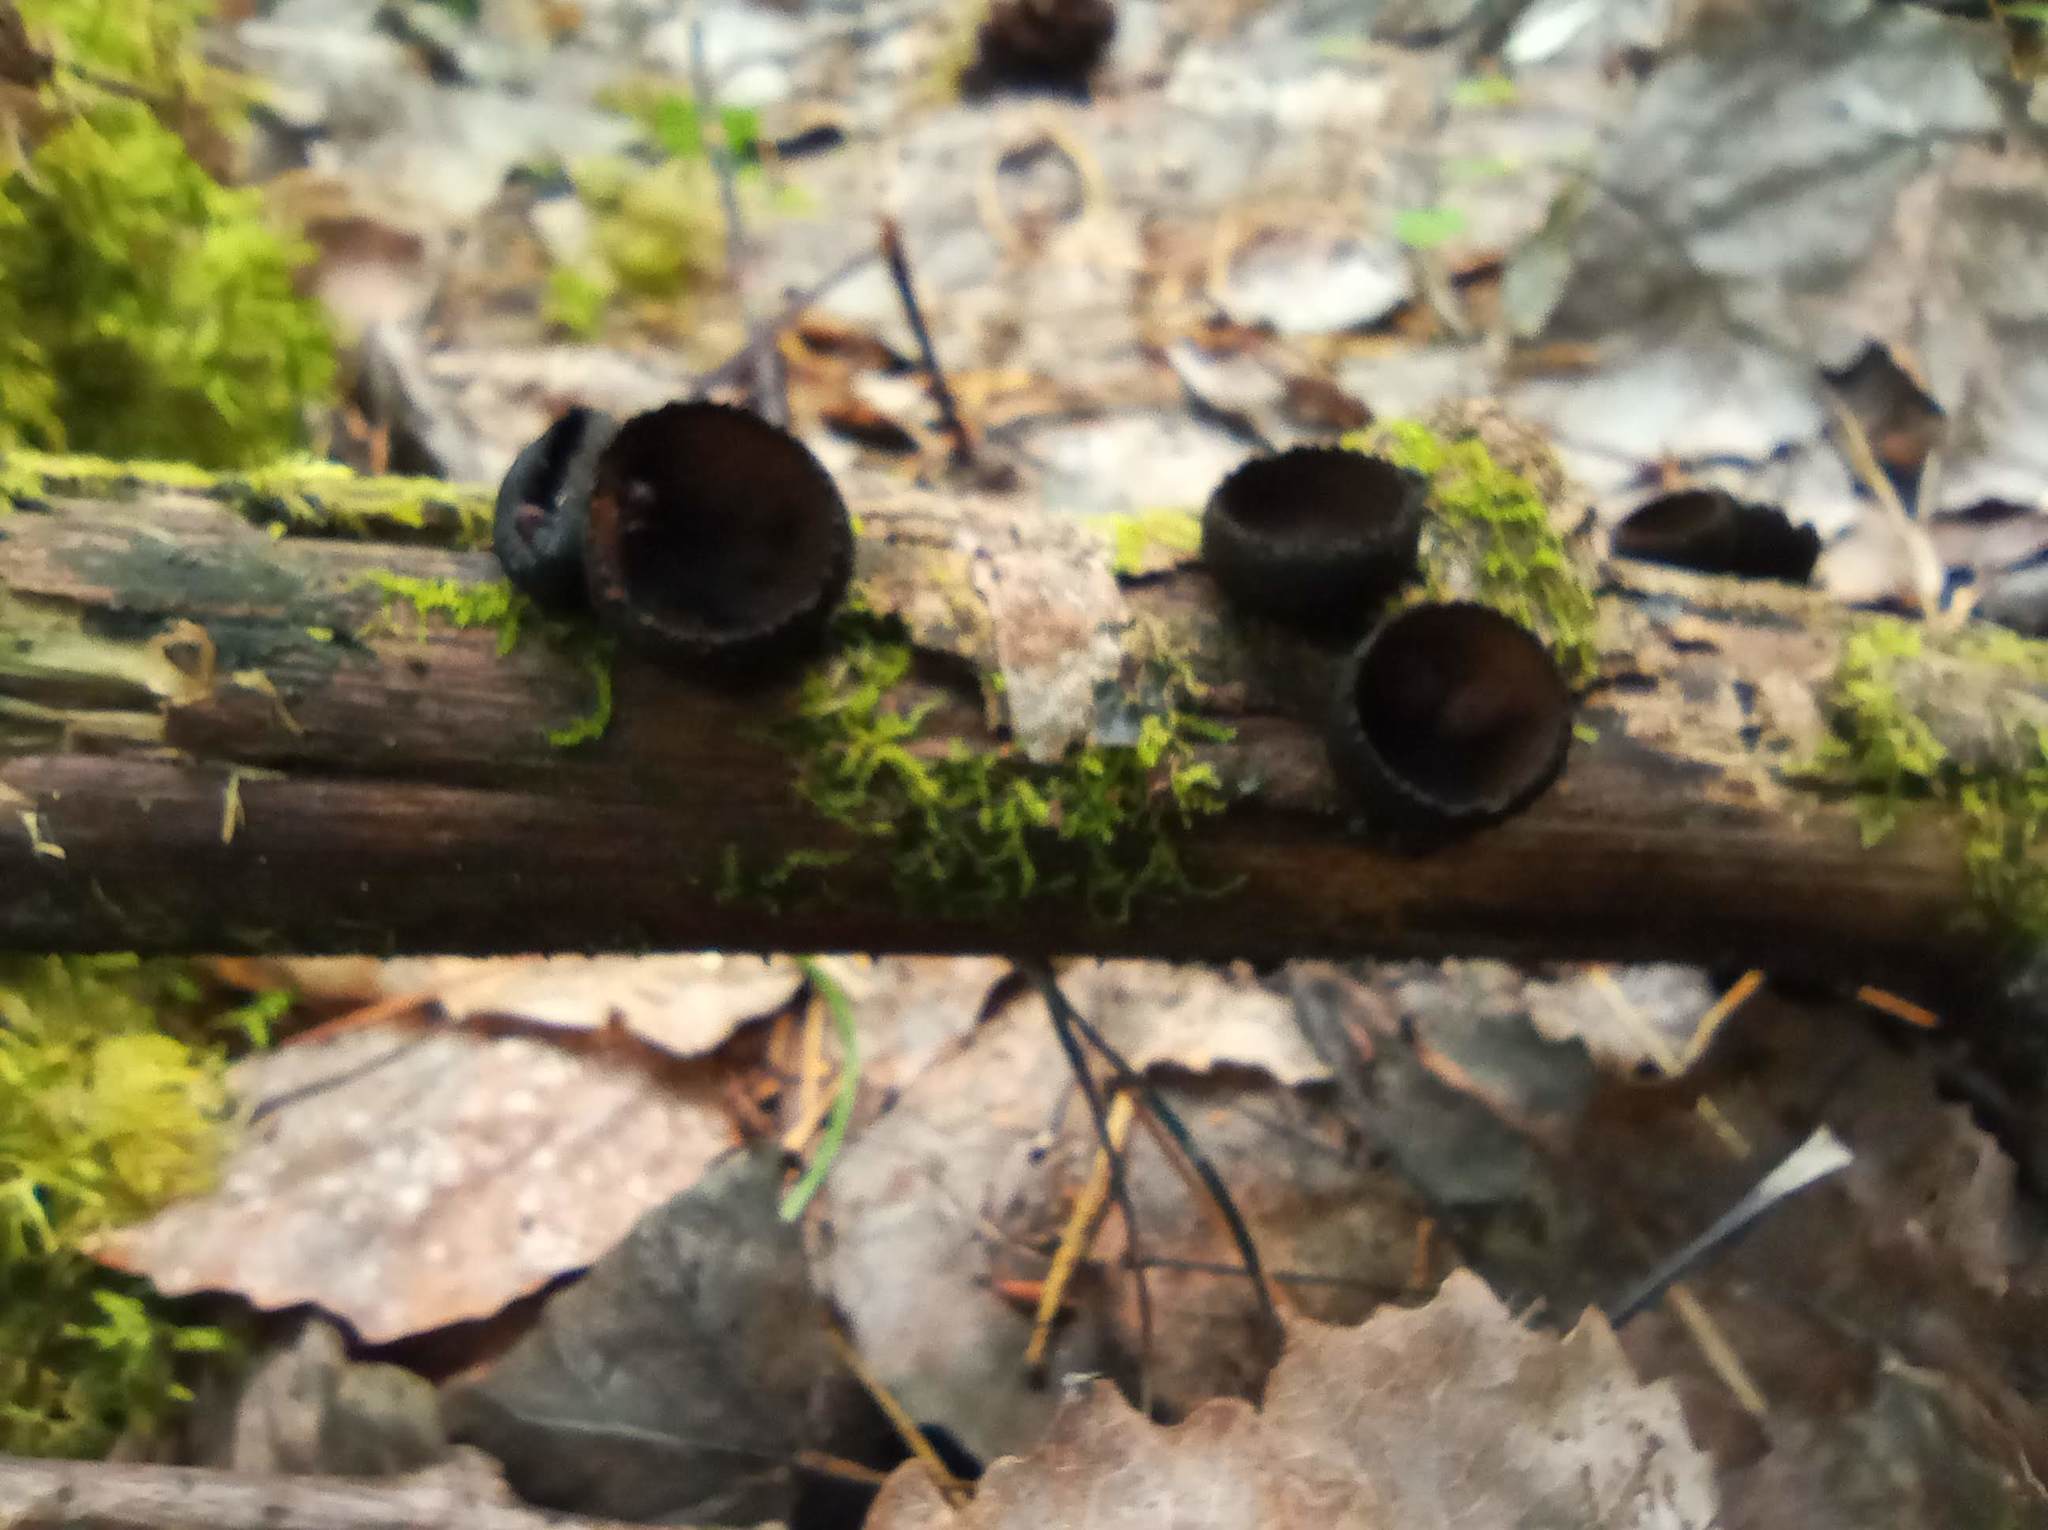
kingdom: Fungi
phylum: Ascomycota
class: Pezizomycetes
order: Pezizales
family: Sarcosomataceae
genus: Plectania
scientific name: Plectania melastoma
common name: Corona cup
